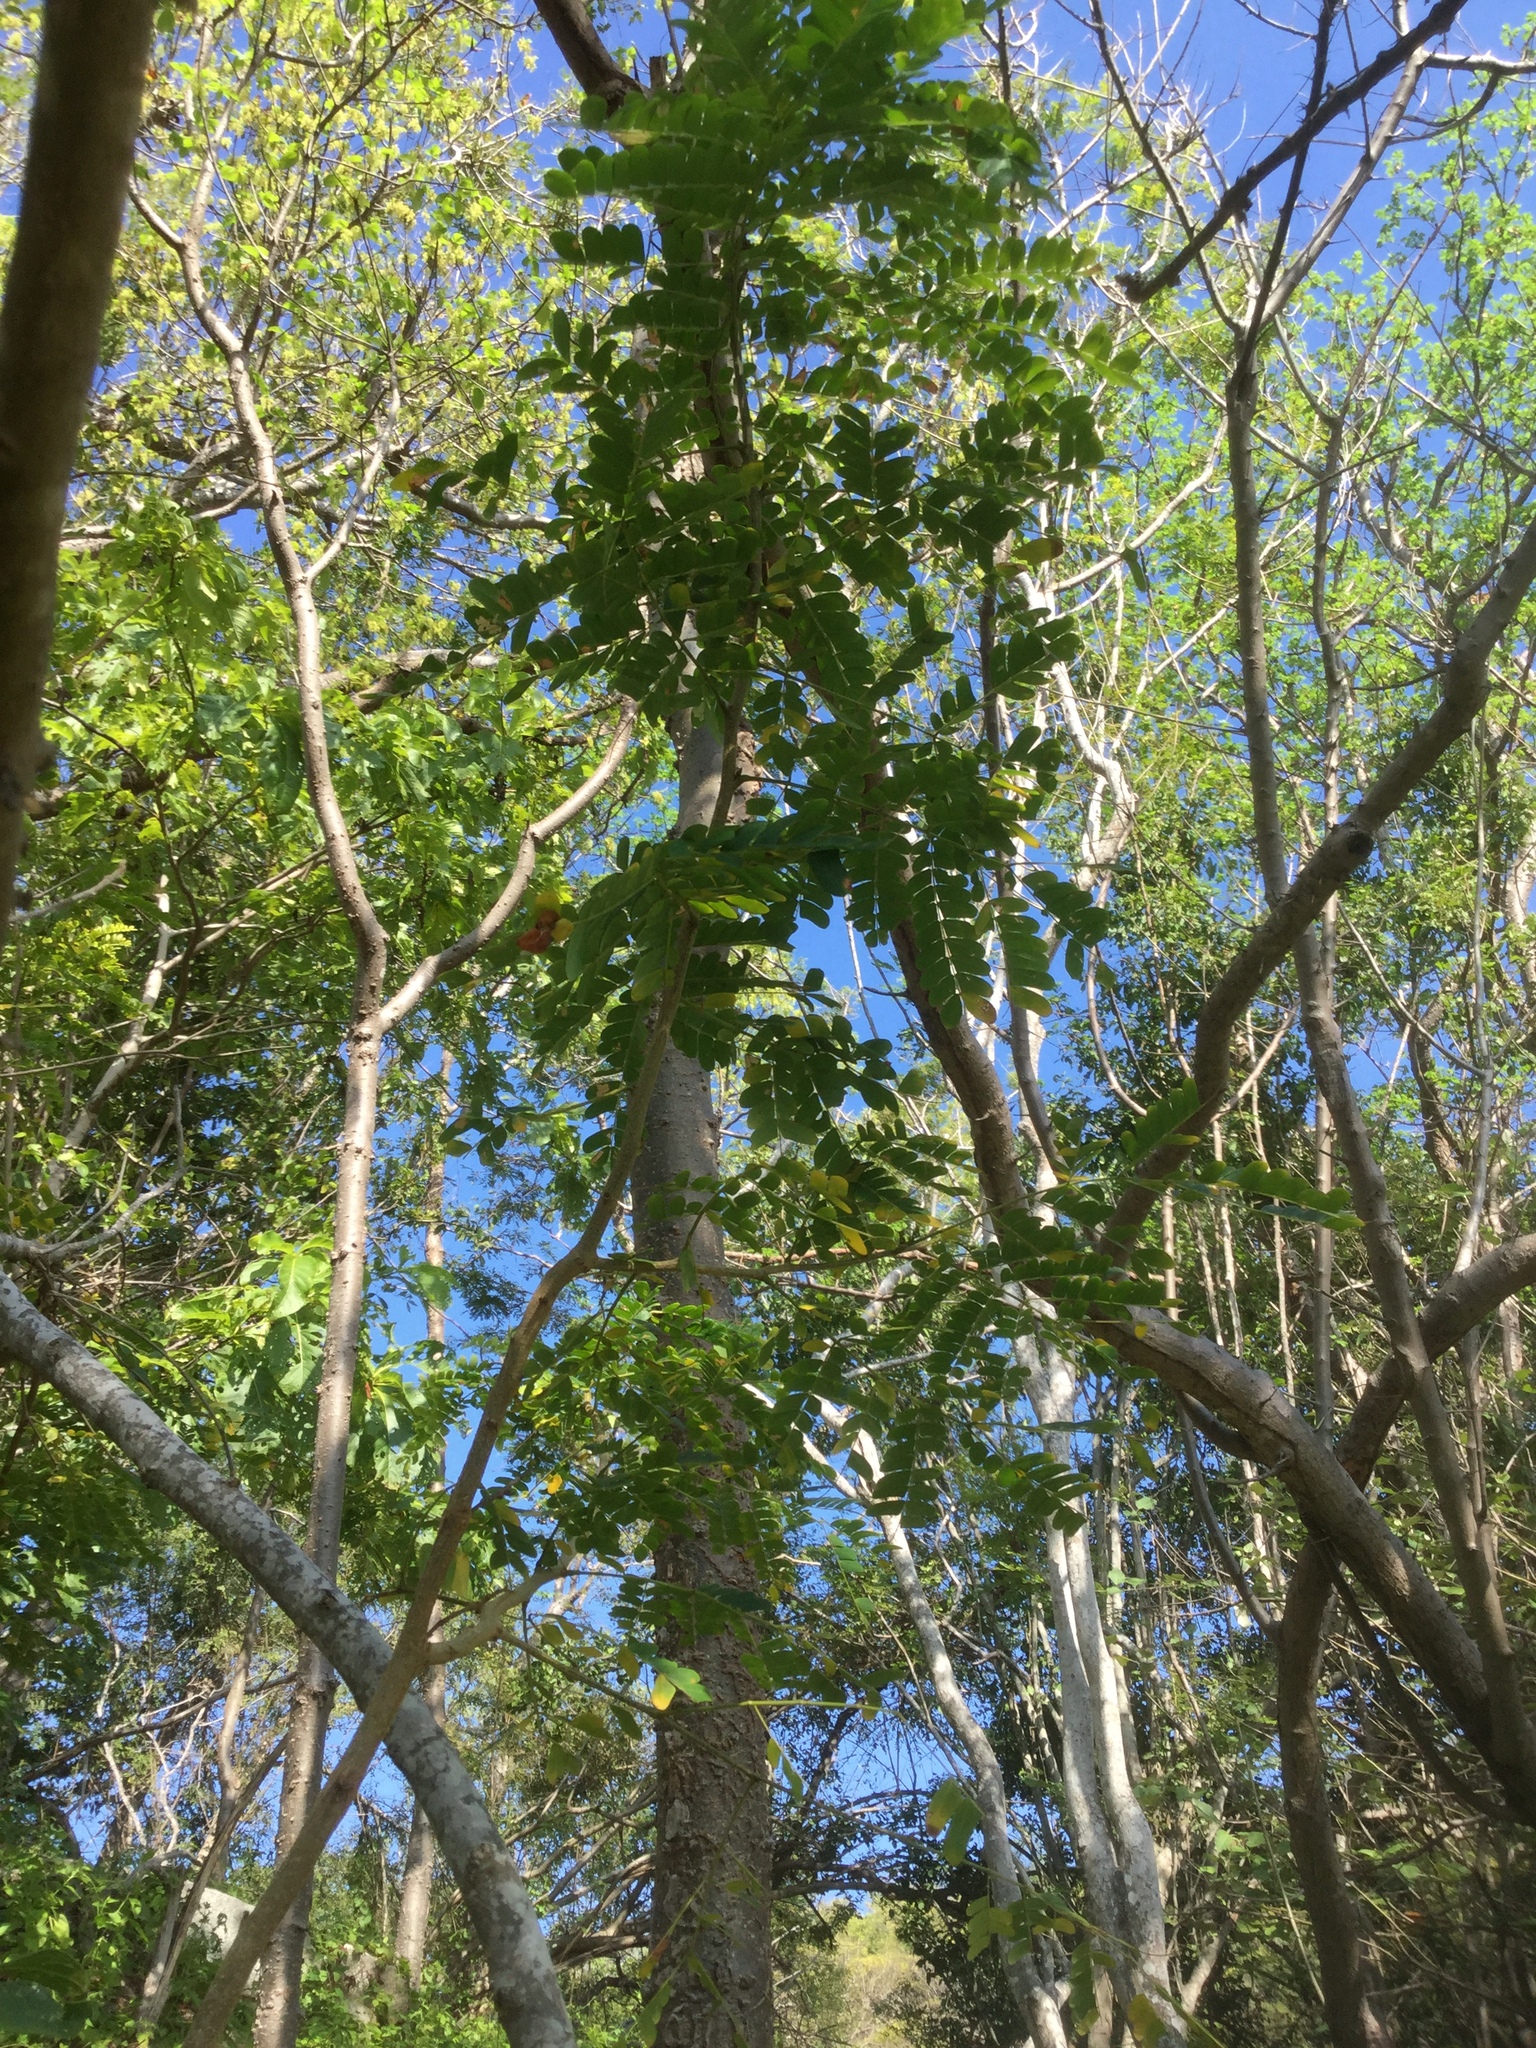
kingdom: Plantae
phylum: Tracheophyta
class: Magnoliopsida
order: Fabales
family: Fabaceae
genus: Pityrocarpa
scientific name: Pityrocarpa obliqua
